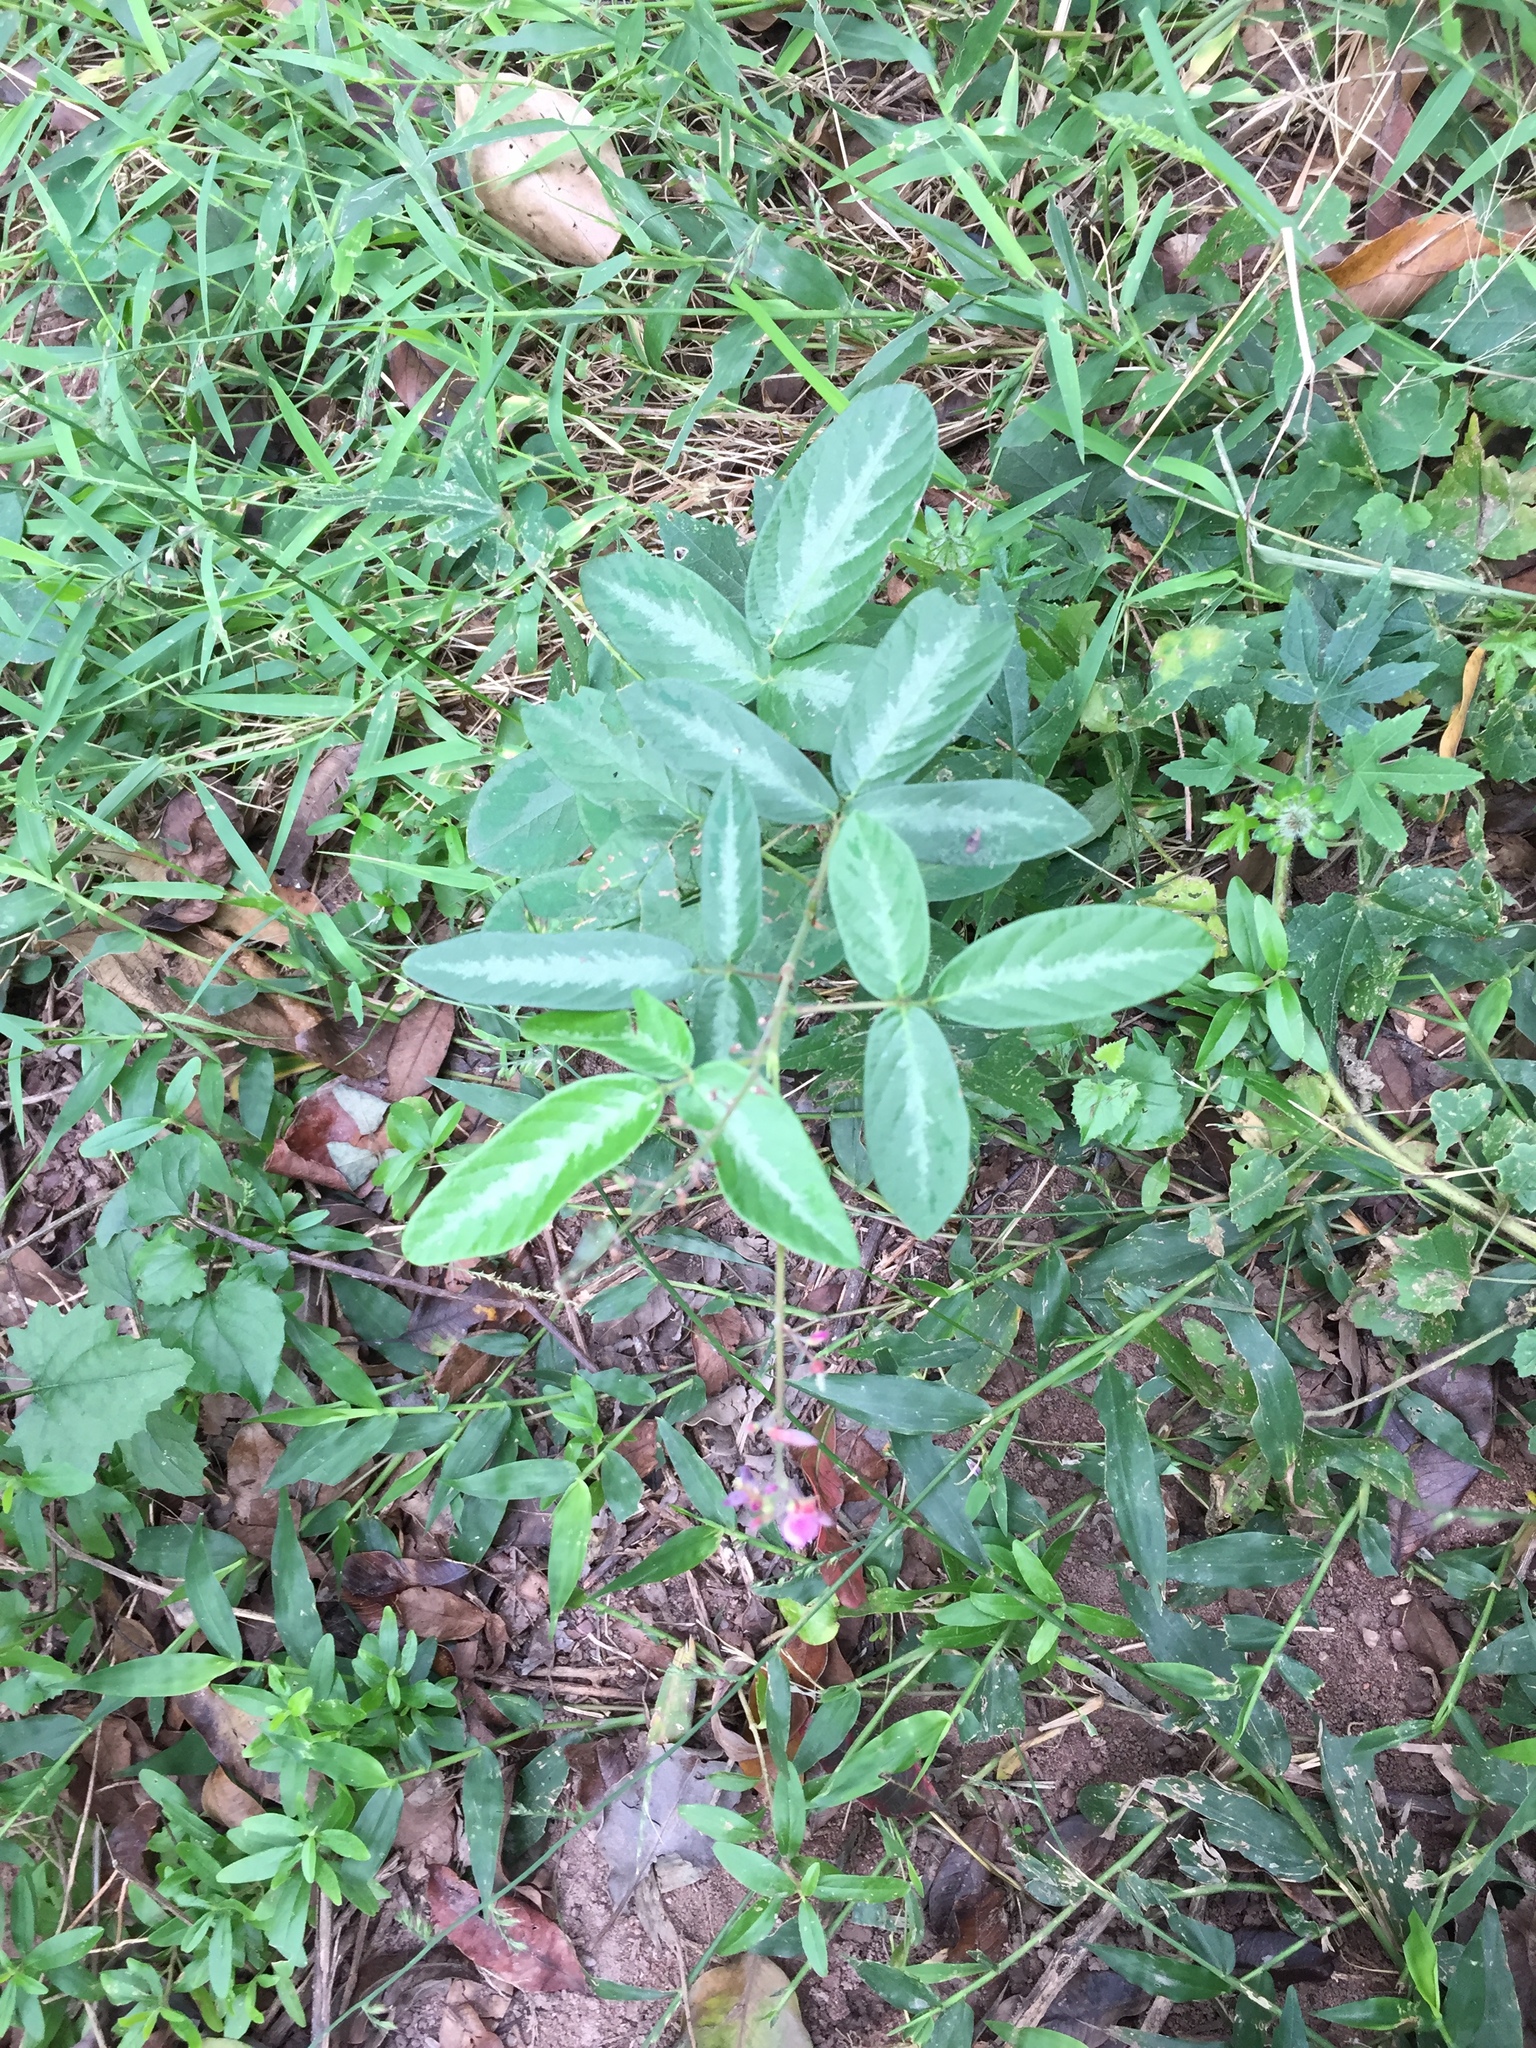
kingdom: Plantae
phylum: Tracheophyta
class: Magnoliopsida
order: Fabales
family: Fabaceae
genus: Desmodium
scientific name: Desmodium incanum
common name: Tickclover
